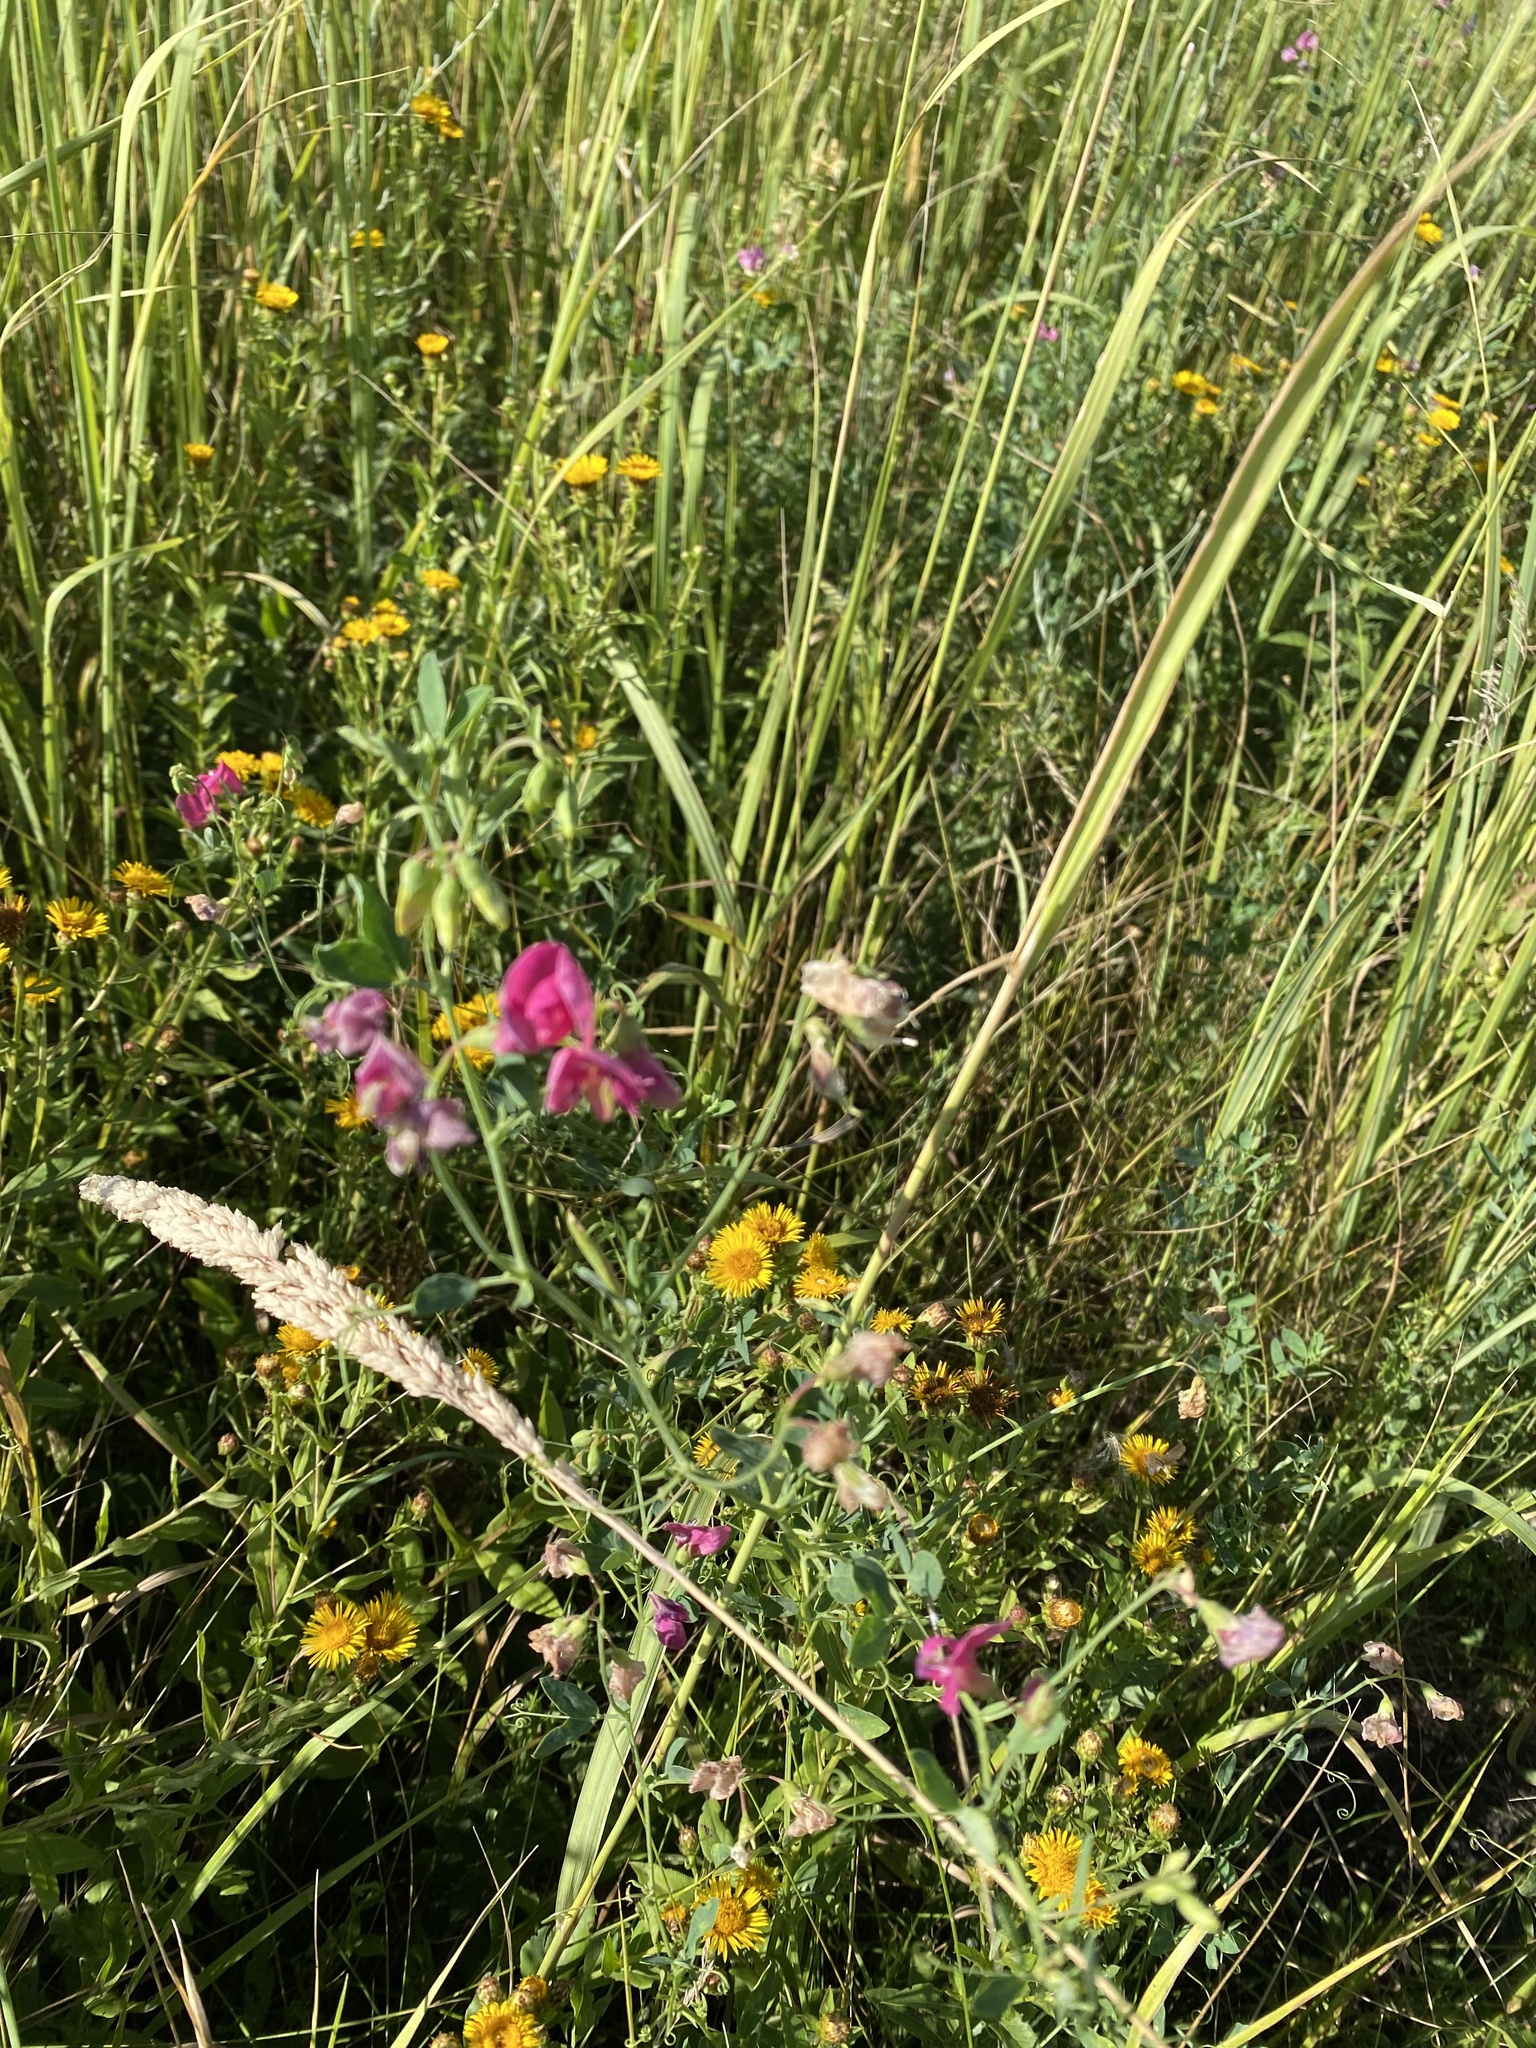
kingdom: Plantae
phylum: Tracheophyta
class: Magnoliopsida
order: Fabales
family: Fabaceae
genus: Lathyrus
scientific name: Lathyrus tuberosus
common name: Tuberous pea
